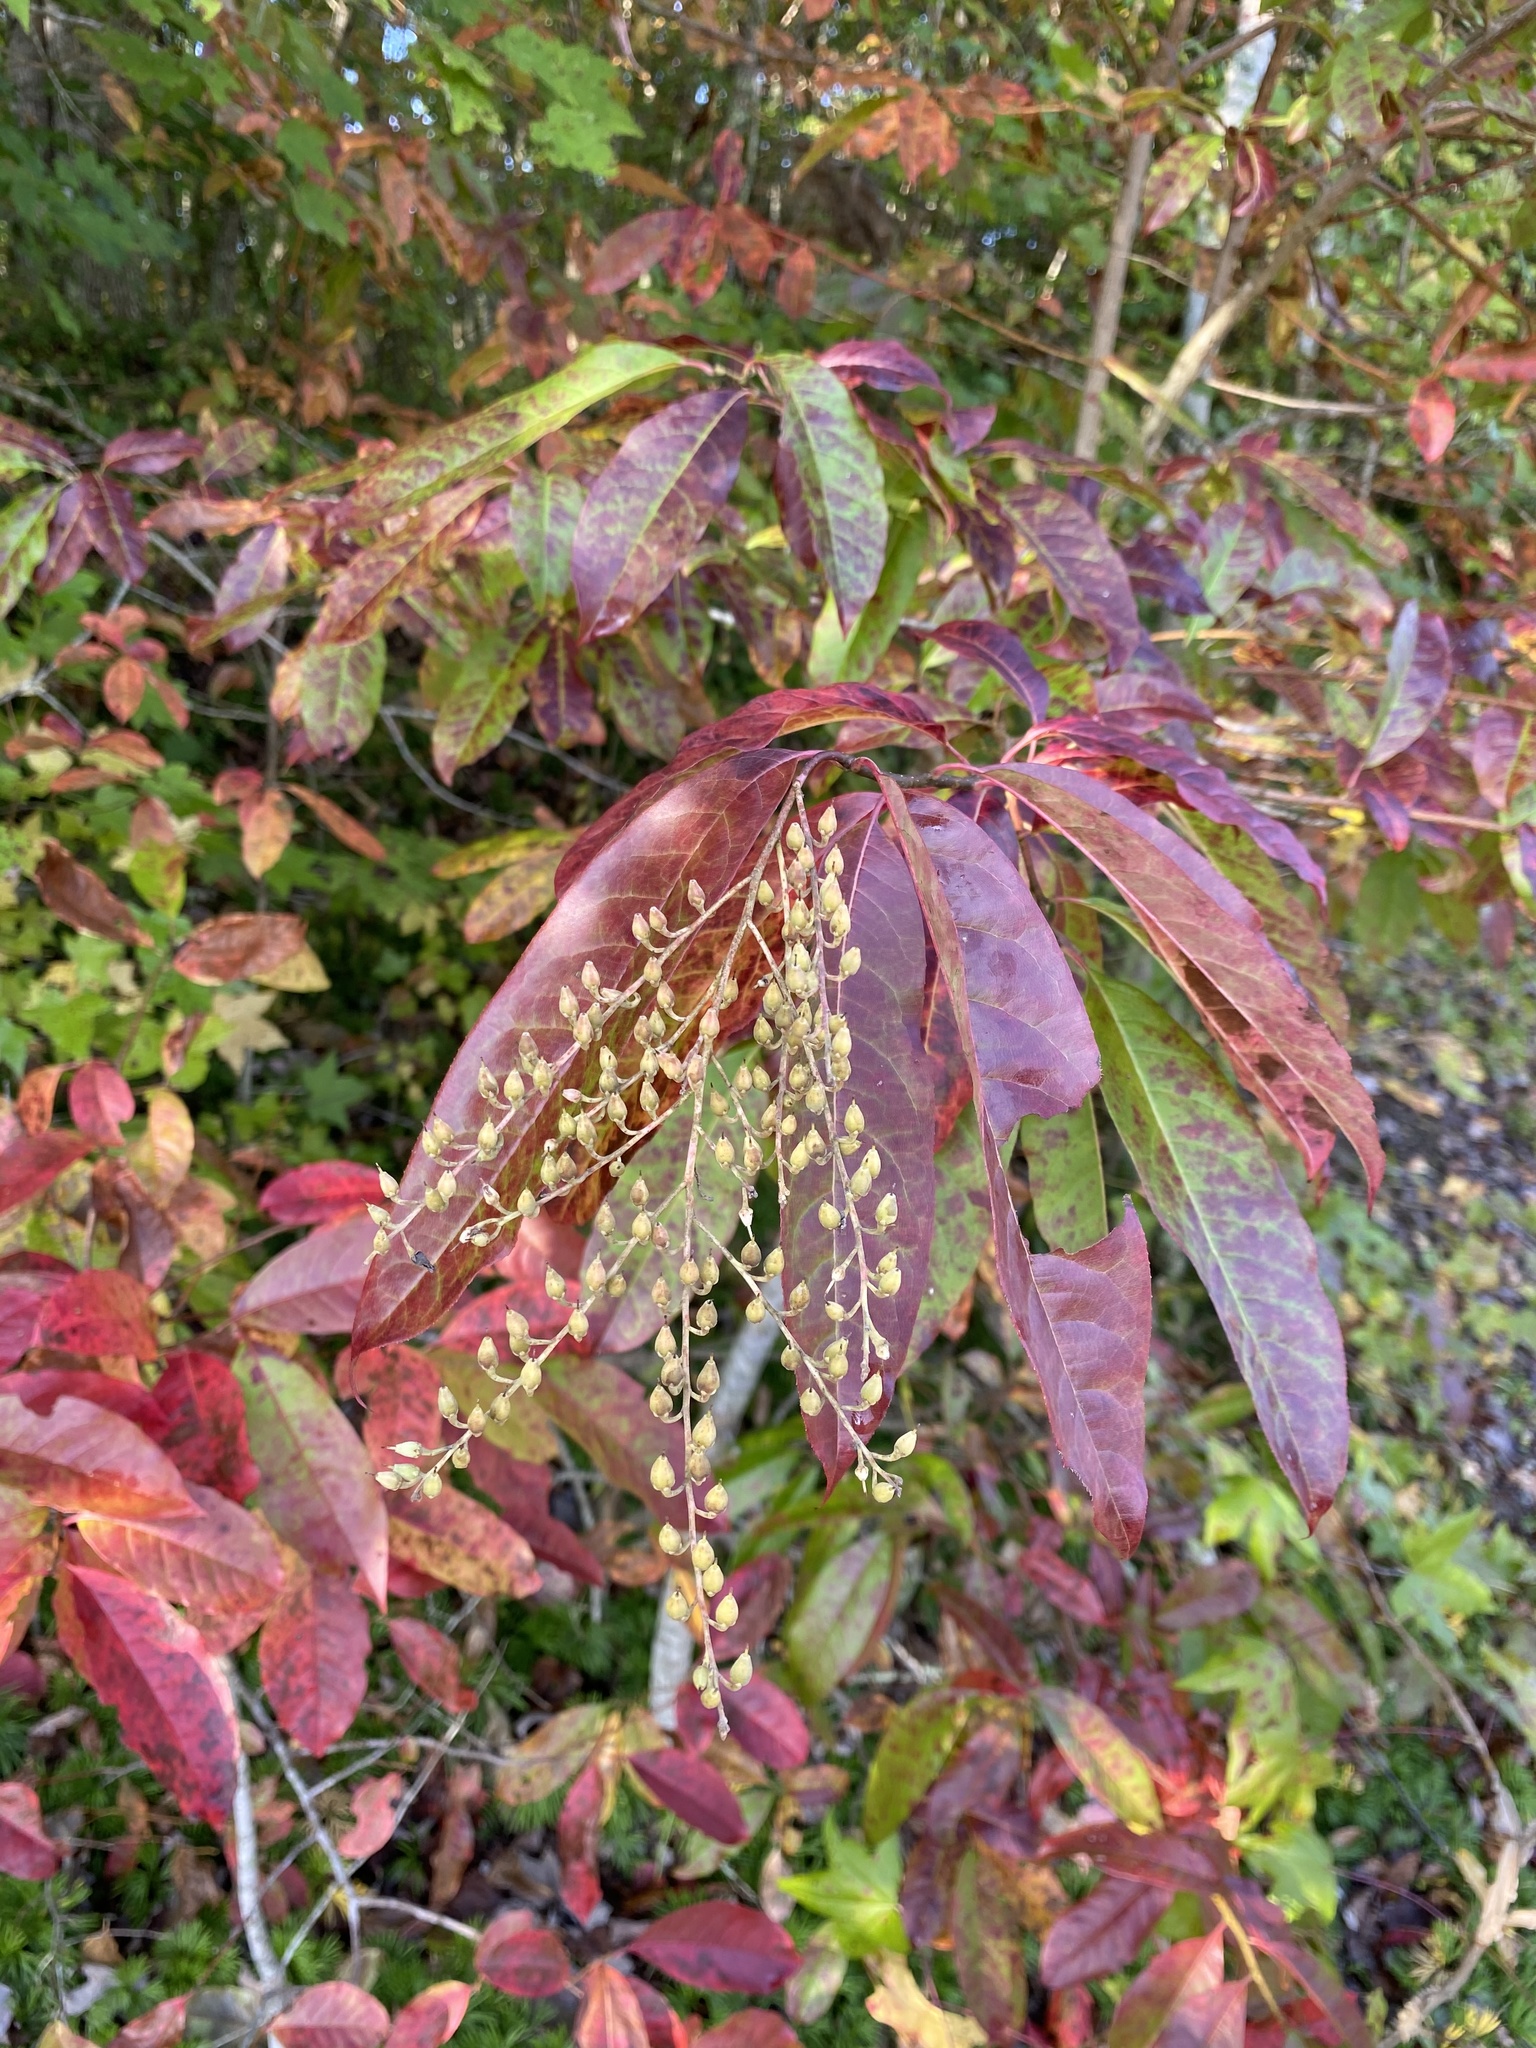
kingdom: Plantae
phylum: Tracheophyta
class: Magnoliopsida
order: Ericales
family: Ericaceae
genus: Oxydendrum
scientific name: Oxydendrum arboreum
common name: Sourwood
